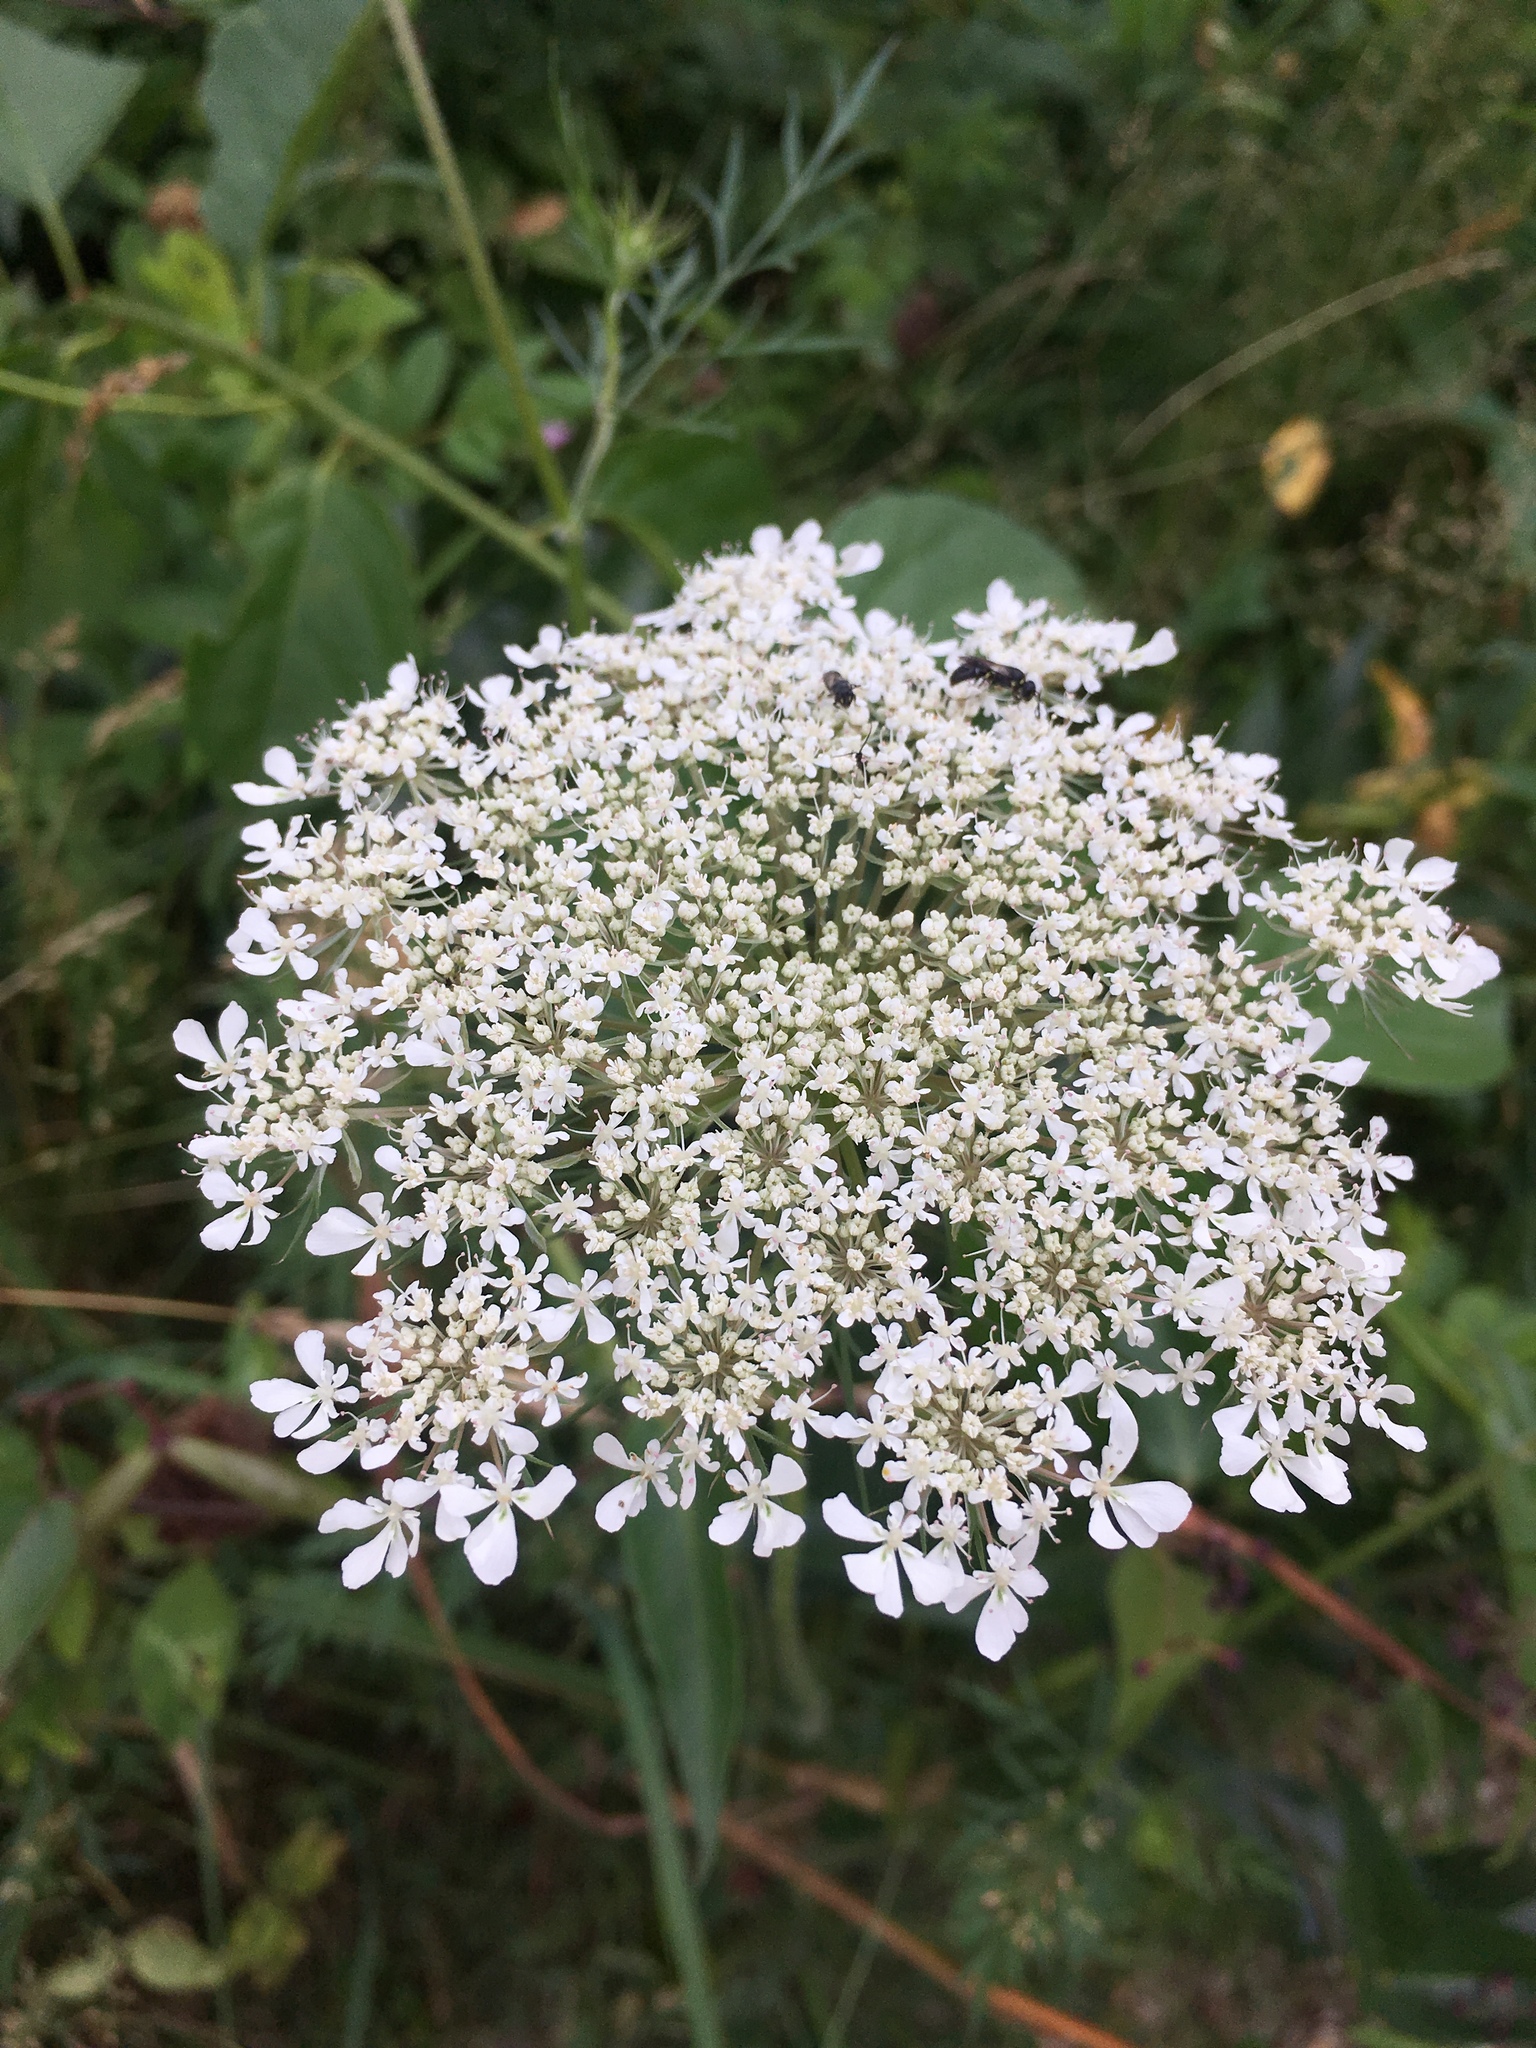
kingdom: Plantae
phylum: Tracheophyta
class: Magnoliopsida
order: Apiales
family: Apiaceae
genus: Daucus
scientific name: Daucus carota
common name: Wild carrot
